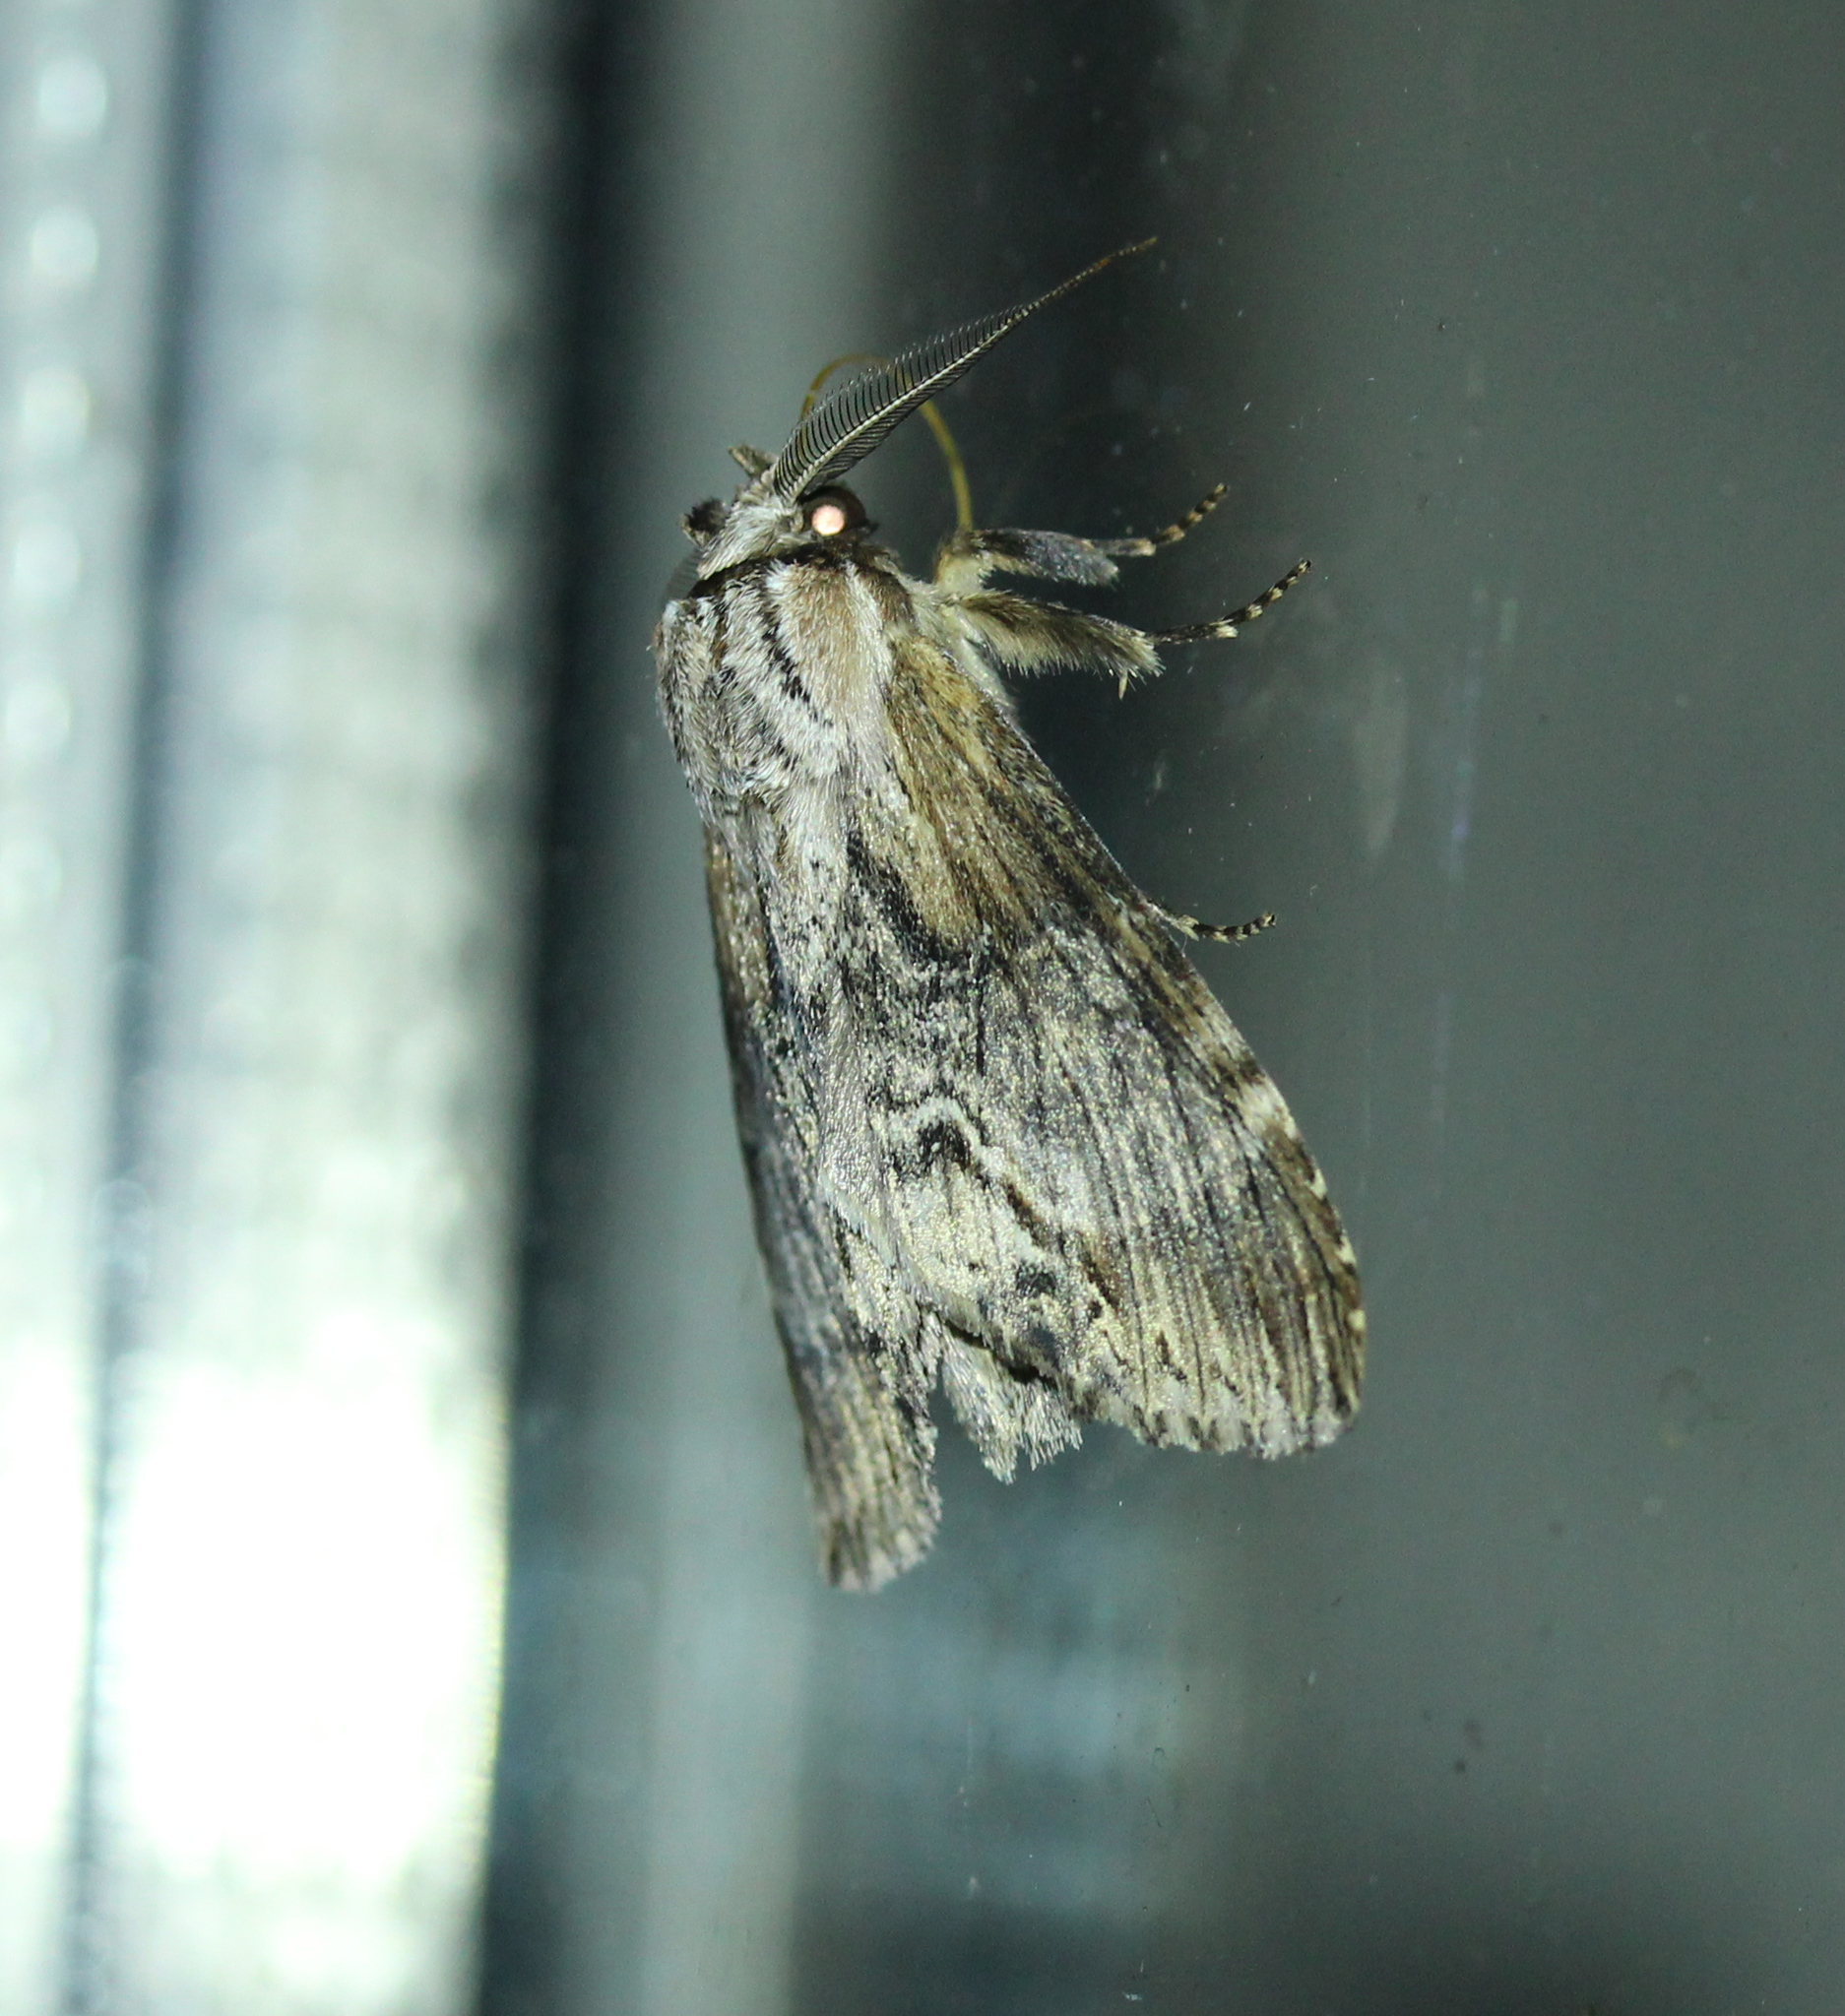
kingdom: Animalia
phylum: Arthropoda
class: Insecta
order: Lepidoptera
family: Notodontidae
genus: Dasylophia
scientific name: Dasylophia thyatiroides
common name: Gray-patched prominent
